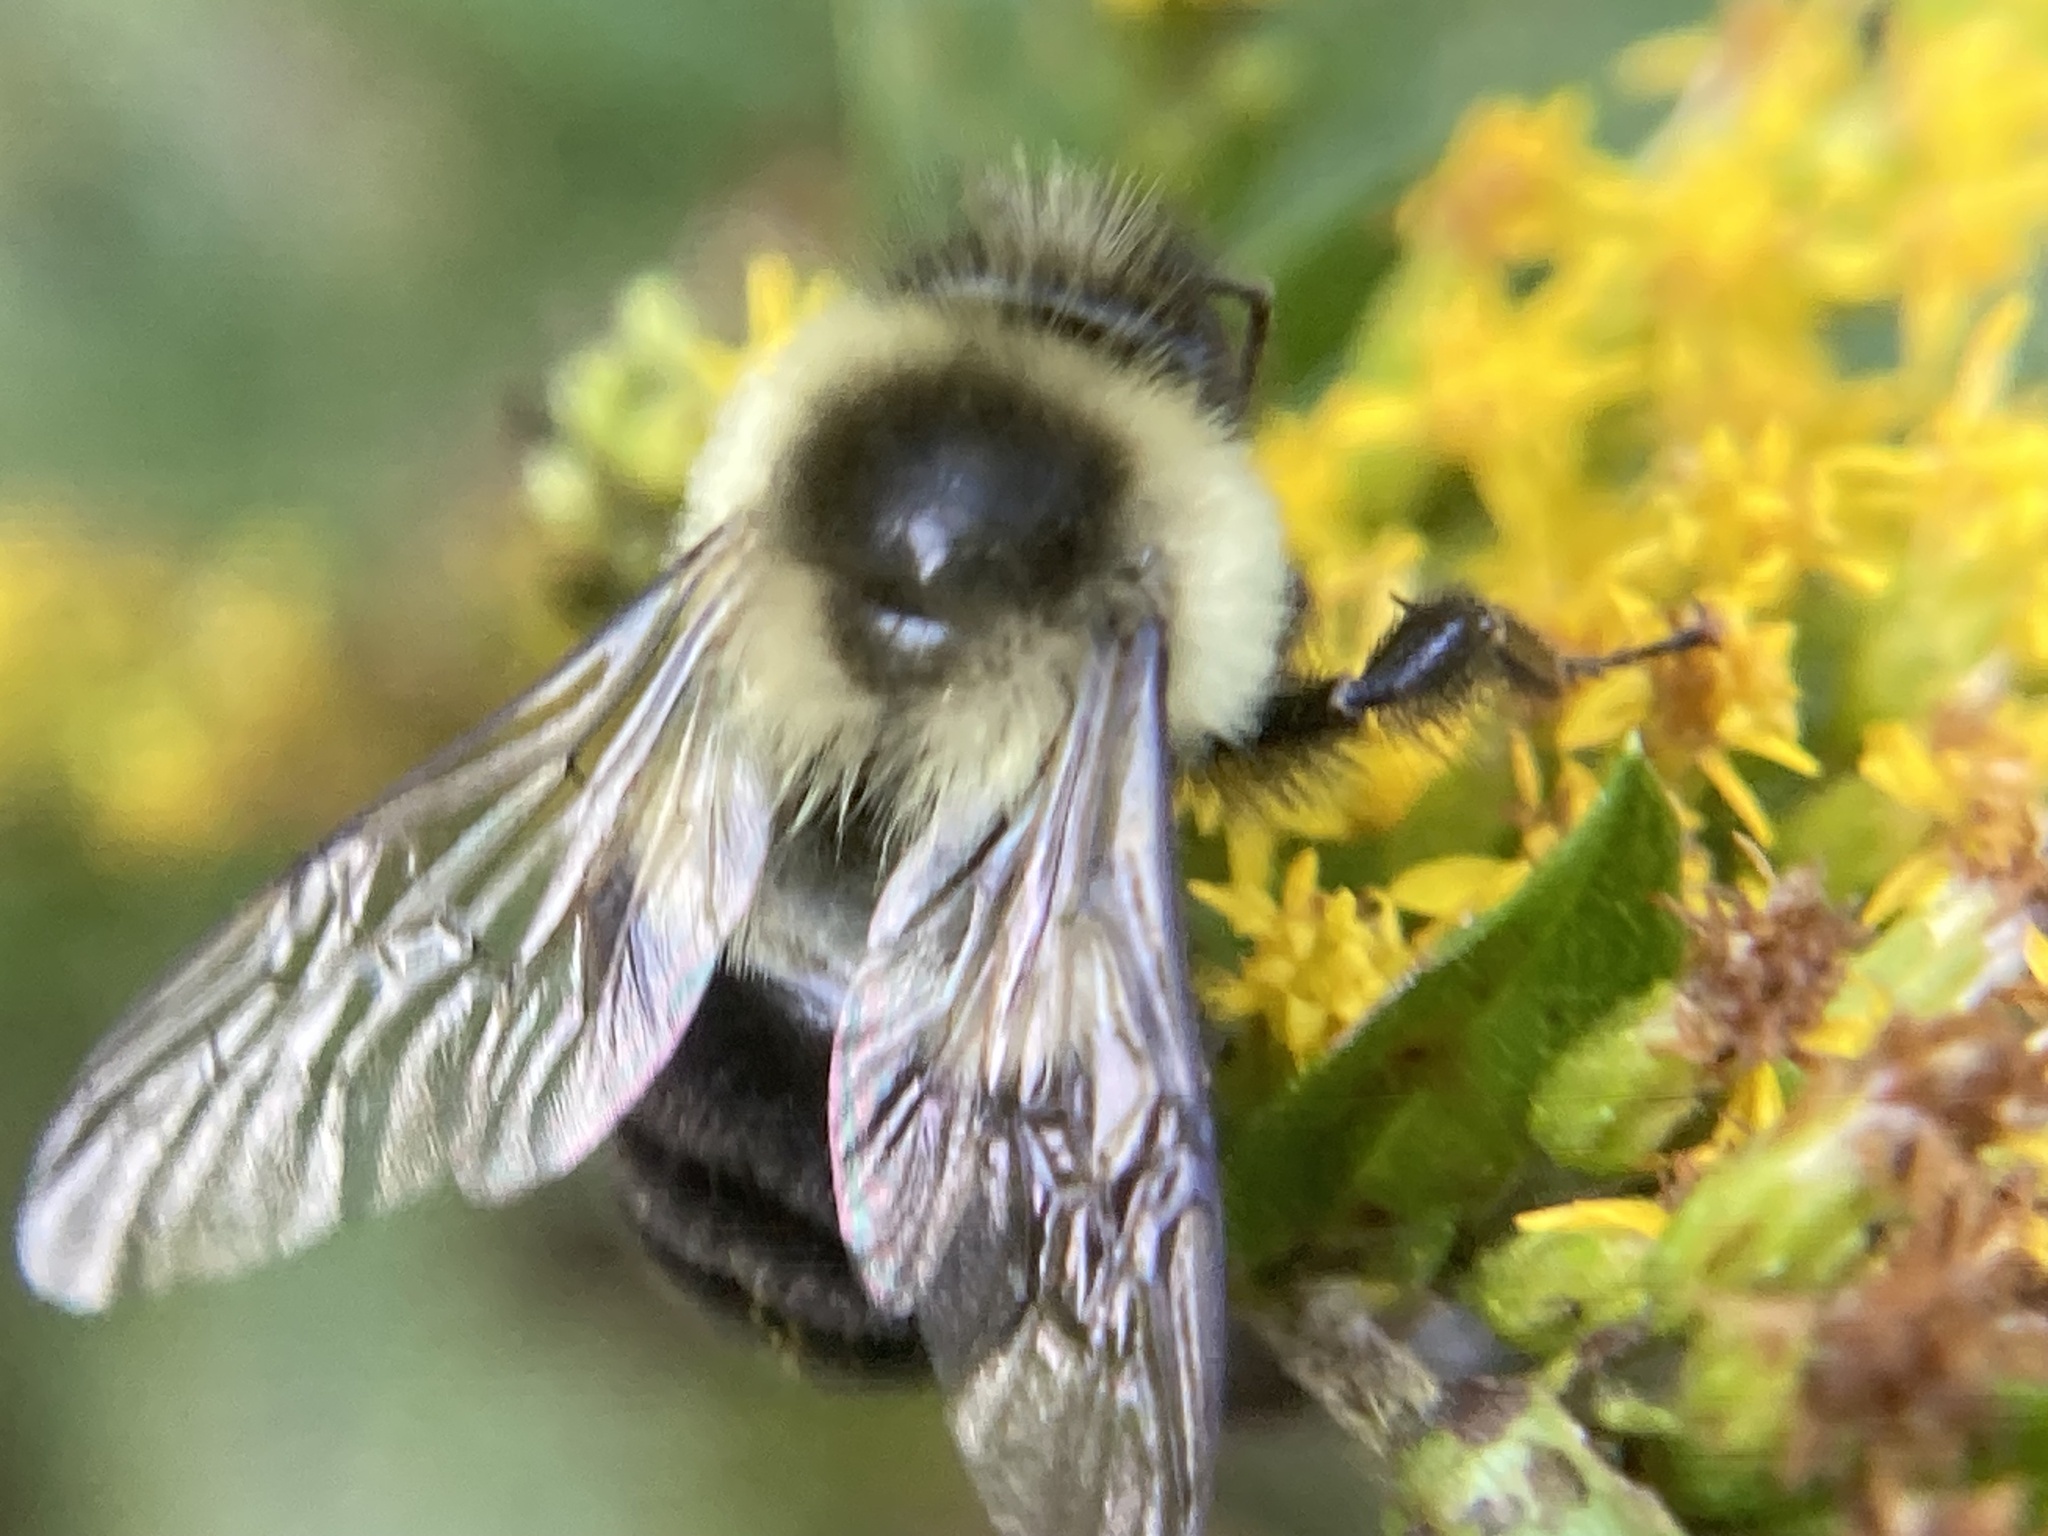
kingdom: Animalia
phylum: Arthropoda
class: Insecta
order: Hymenoptera
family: Apidae
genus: Bombus
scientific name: Bombus impatiens
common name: Common eastern bumble bee
